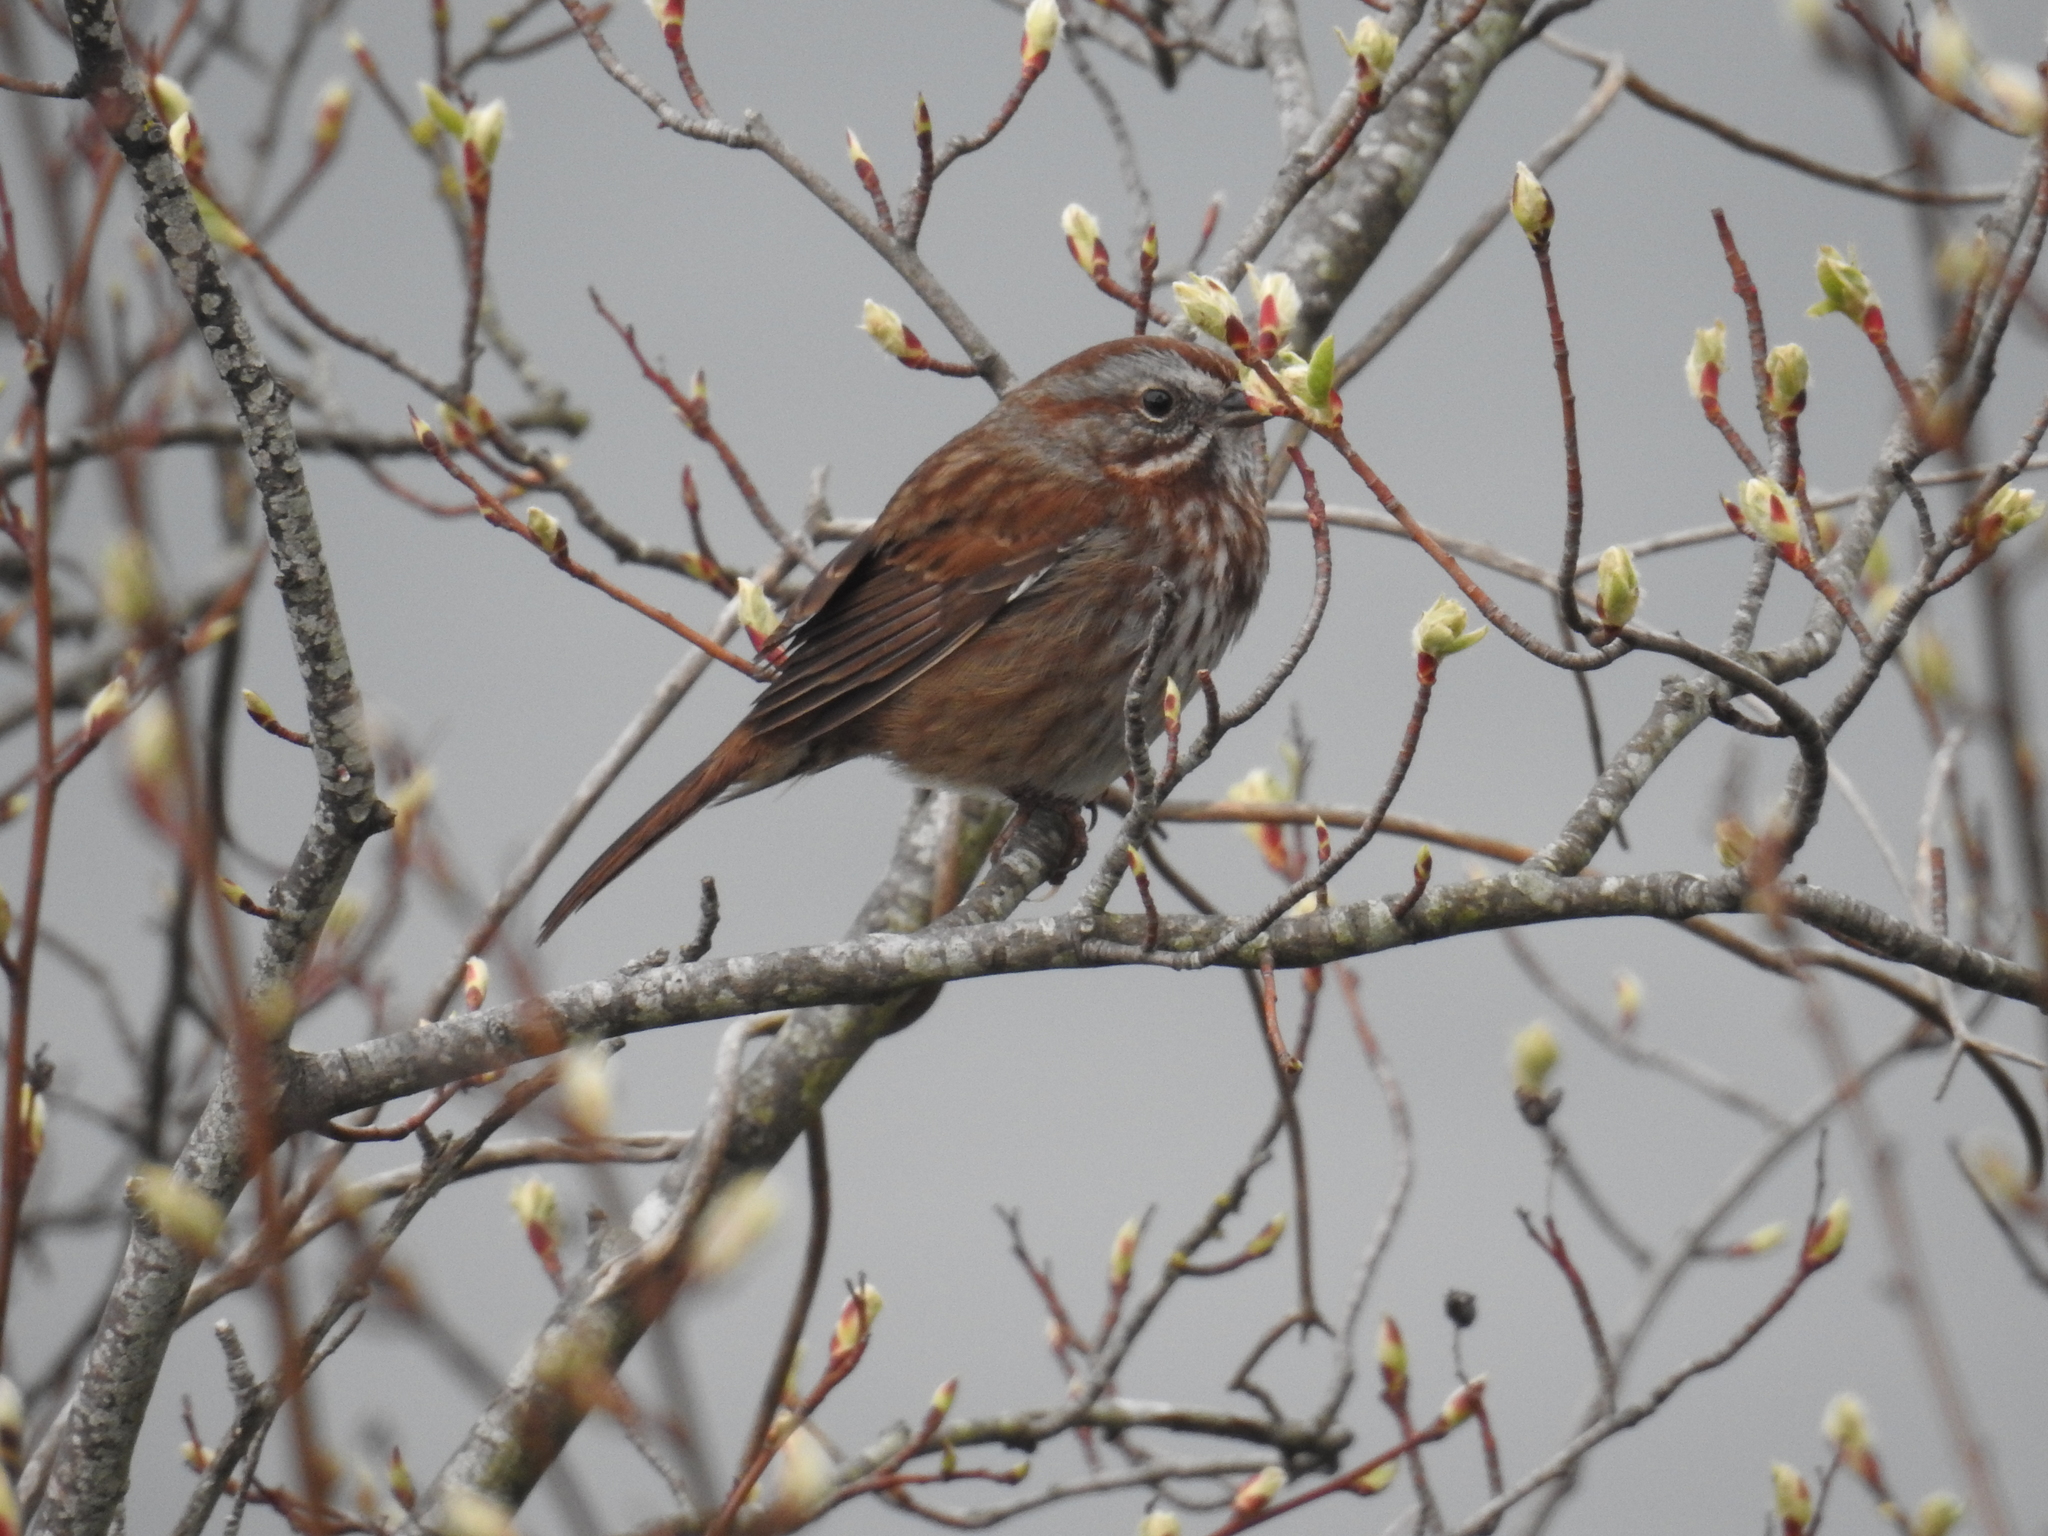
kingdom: Animalia
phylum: Chordata
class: Aves
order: Passeriformes
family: Passerellidae
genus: Melospiza
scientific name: Melospiza melodia
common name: Song sparrow
